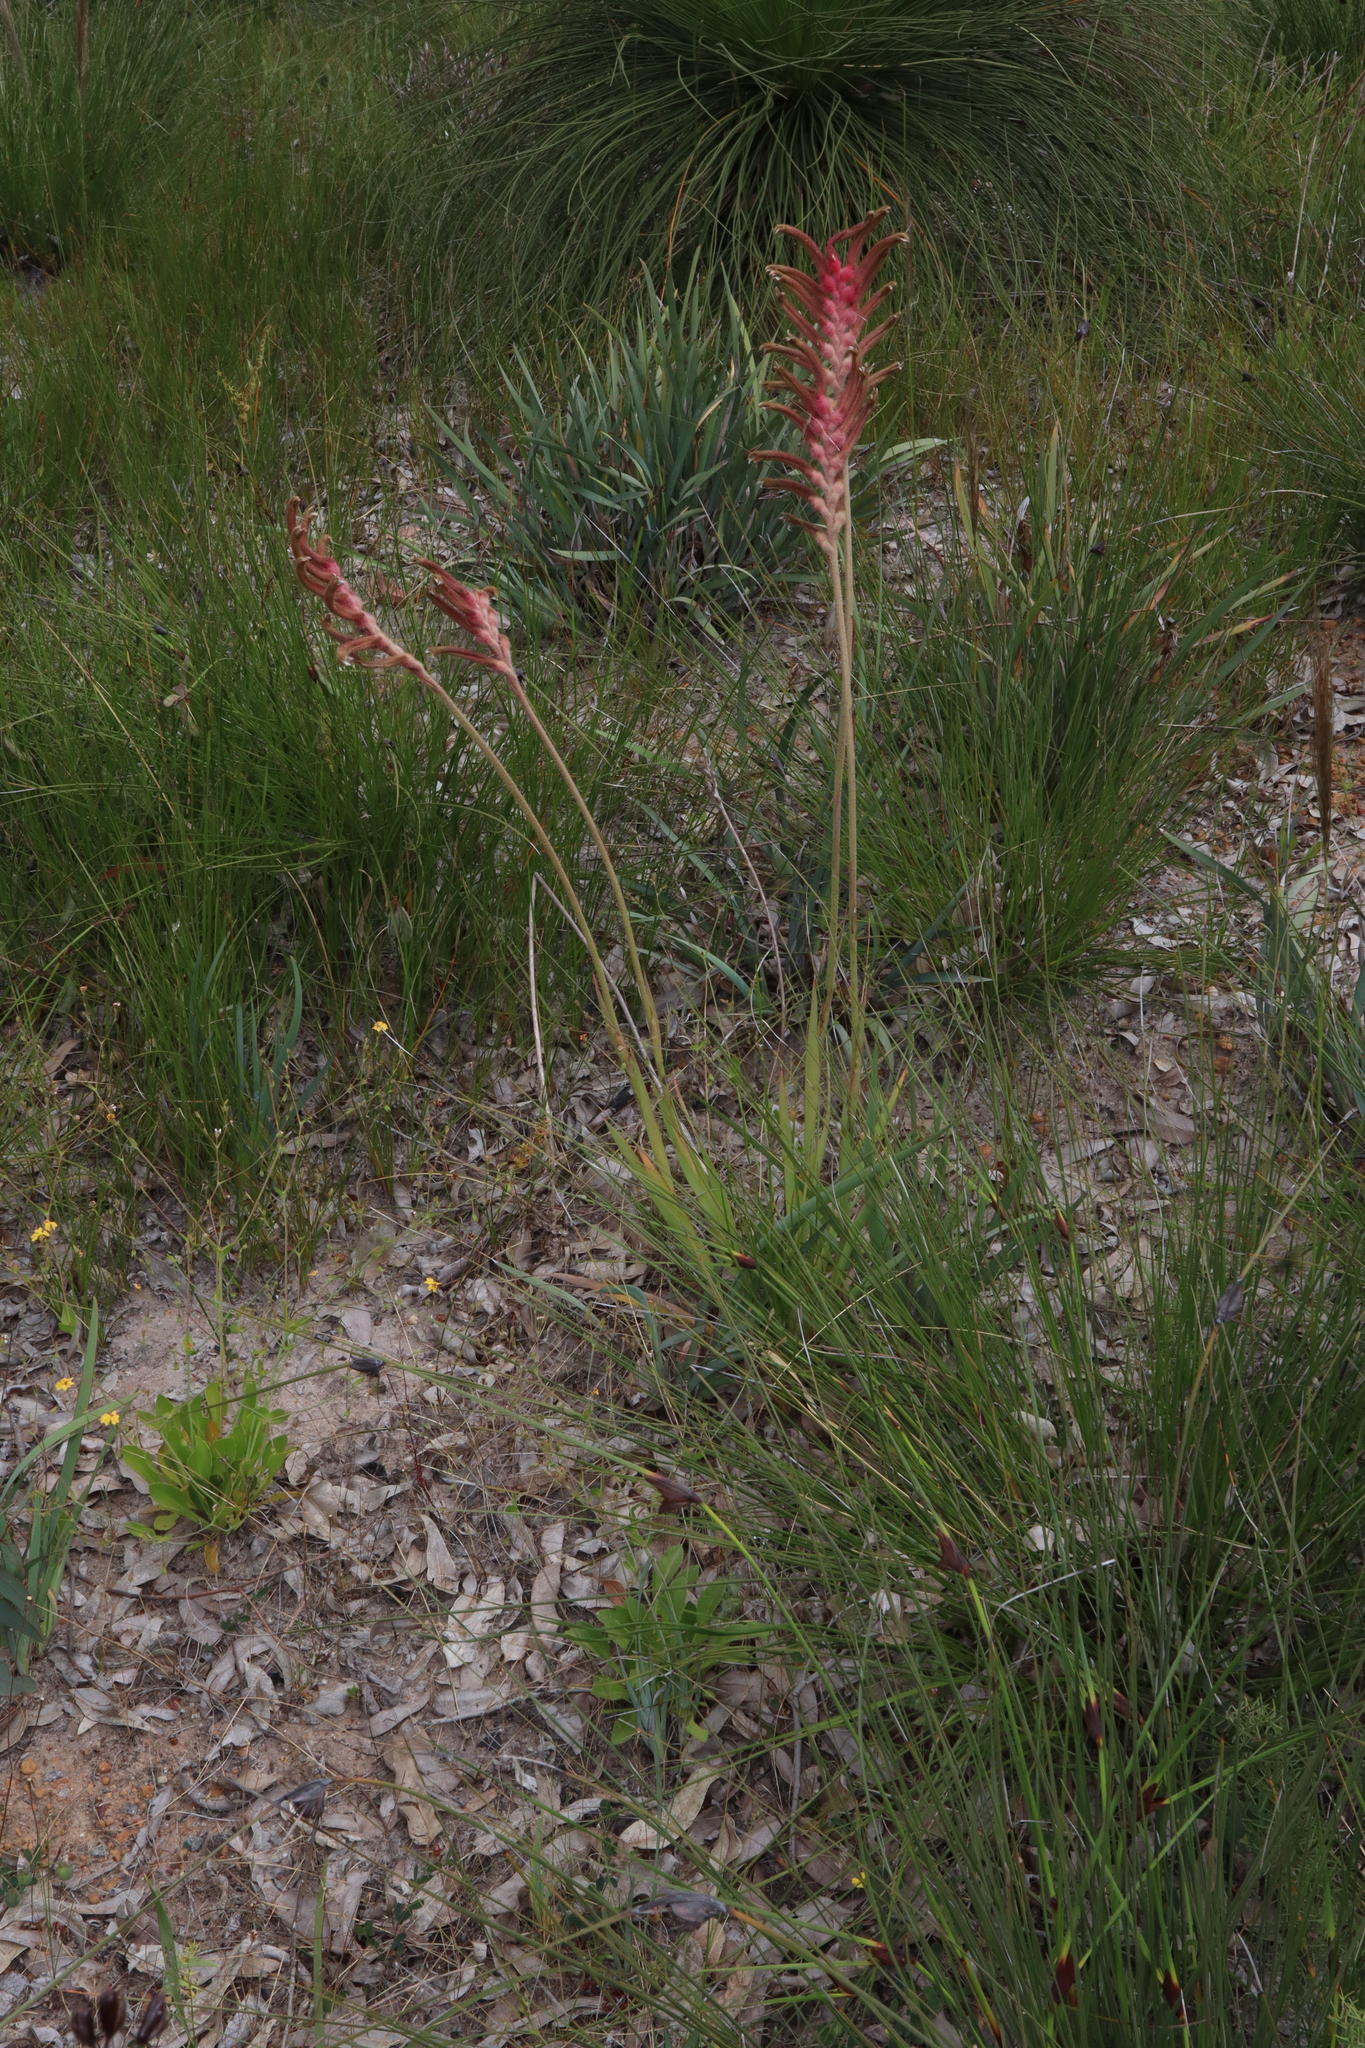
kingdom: Plantae
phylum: Tracheophyta
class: Liliopsida
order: Commelinales
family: Haemodoraceae
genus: Anigozanthos
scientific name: Anigozanthos manglesii
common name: Mangles's kangaroo-paw
